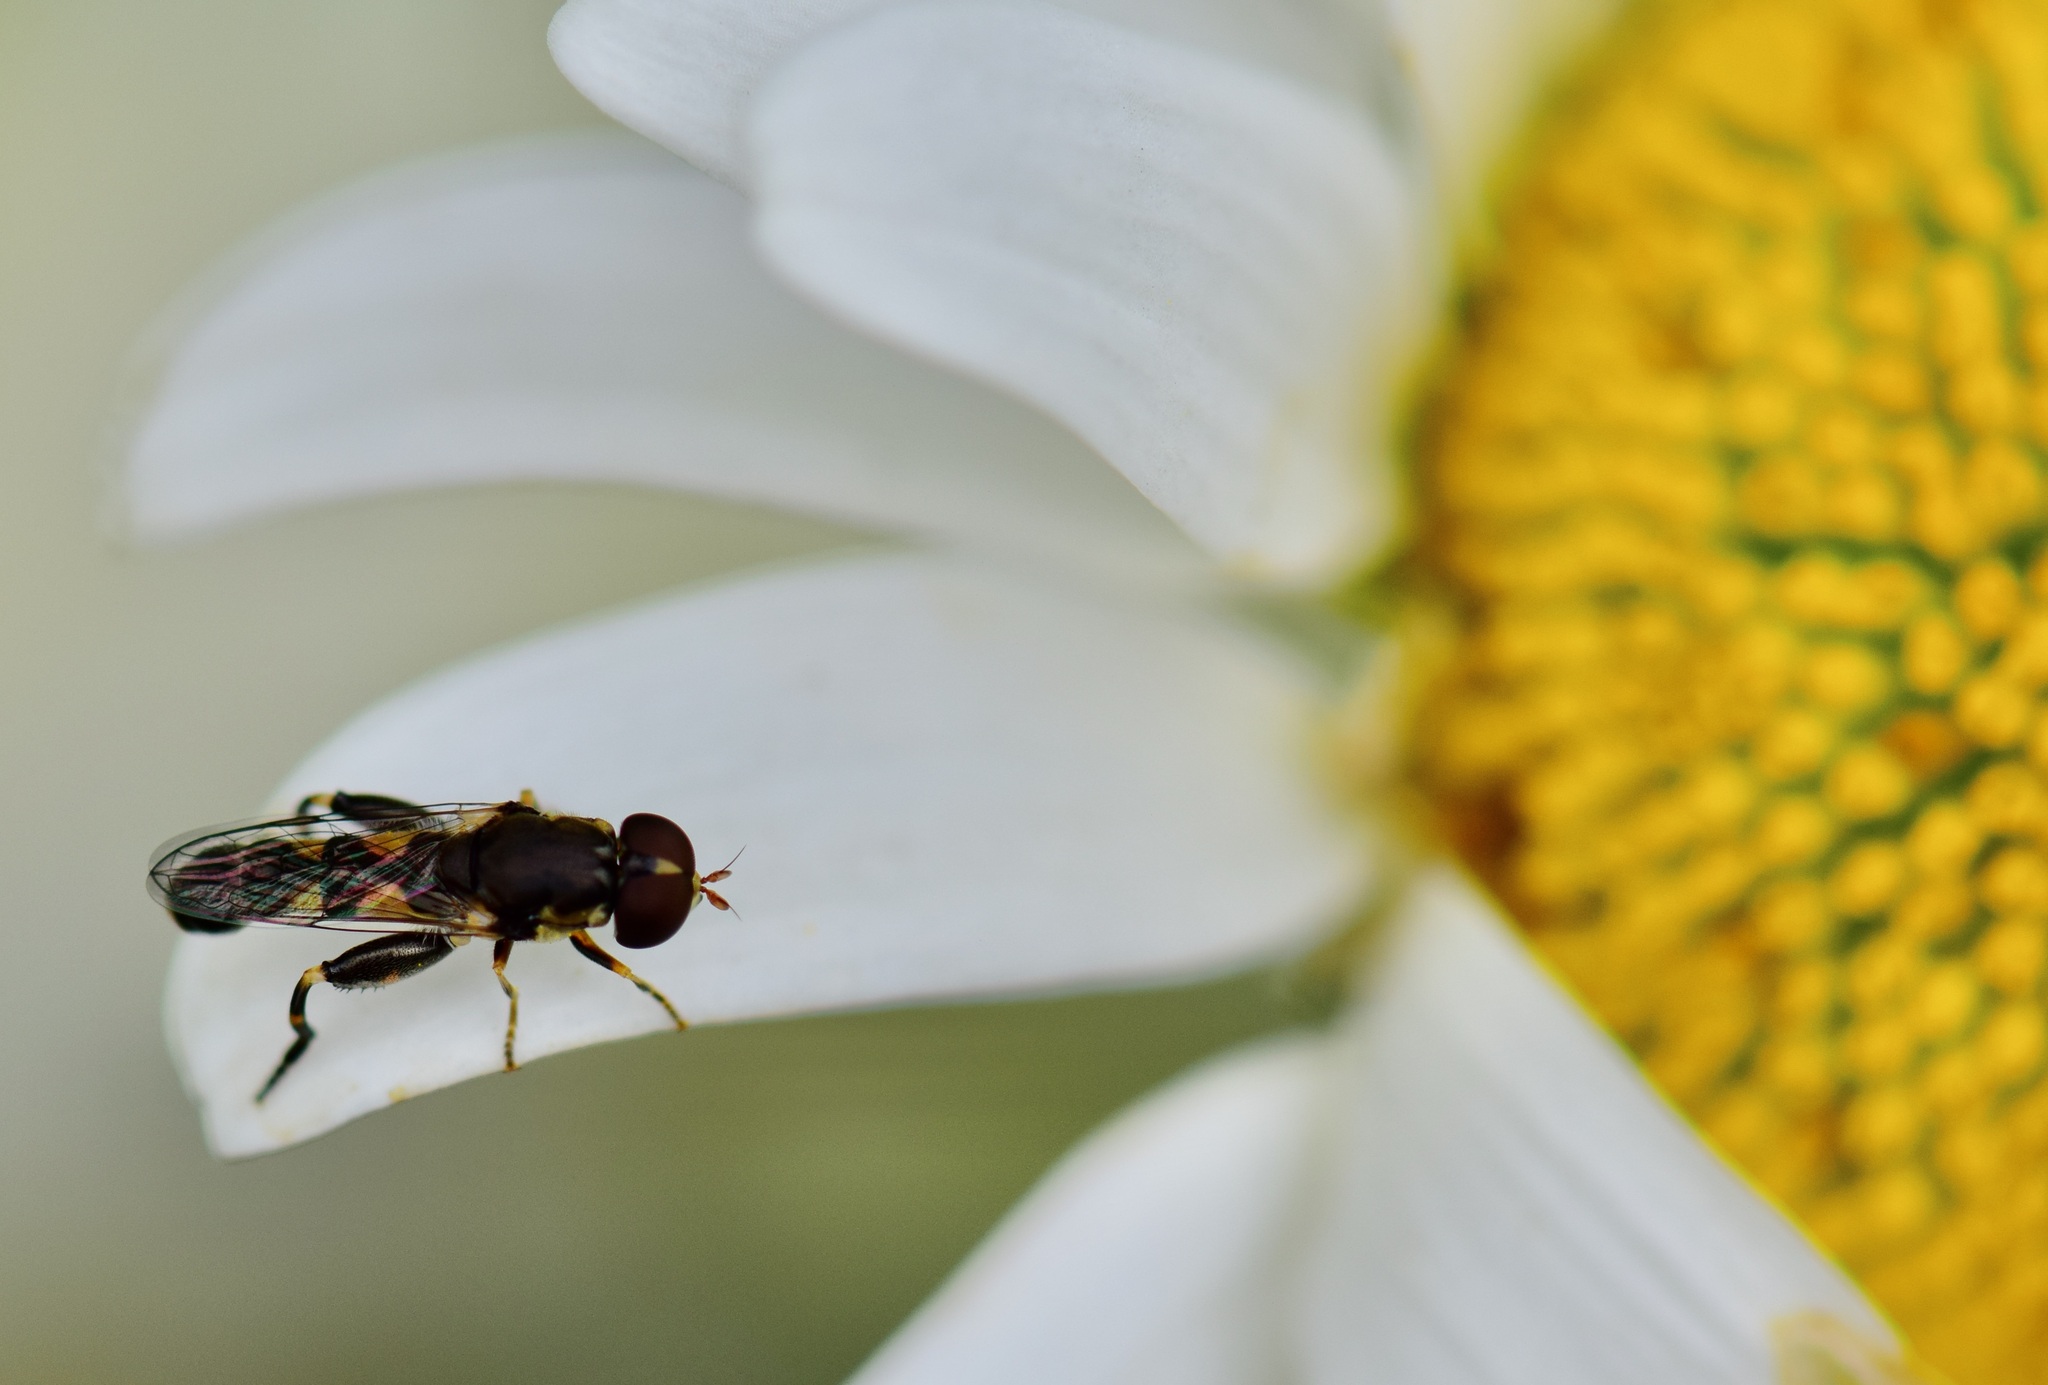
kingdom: Animalia
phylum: Arthropoda
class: Insecta
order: Diptera
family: Syrphidae
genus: Syritta
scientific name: Syritta pipiens
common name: Hover fly
